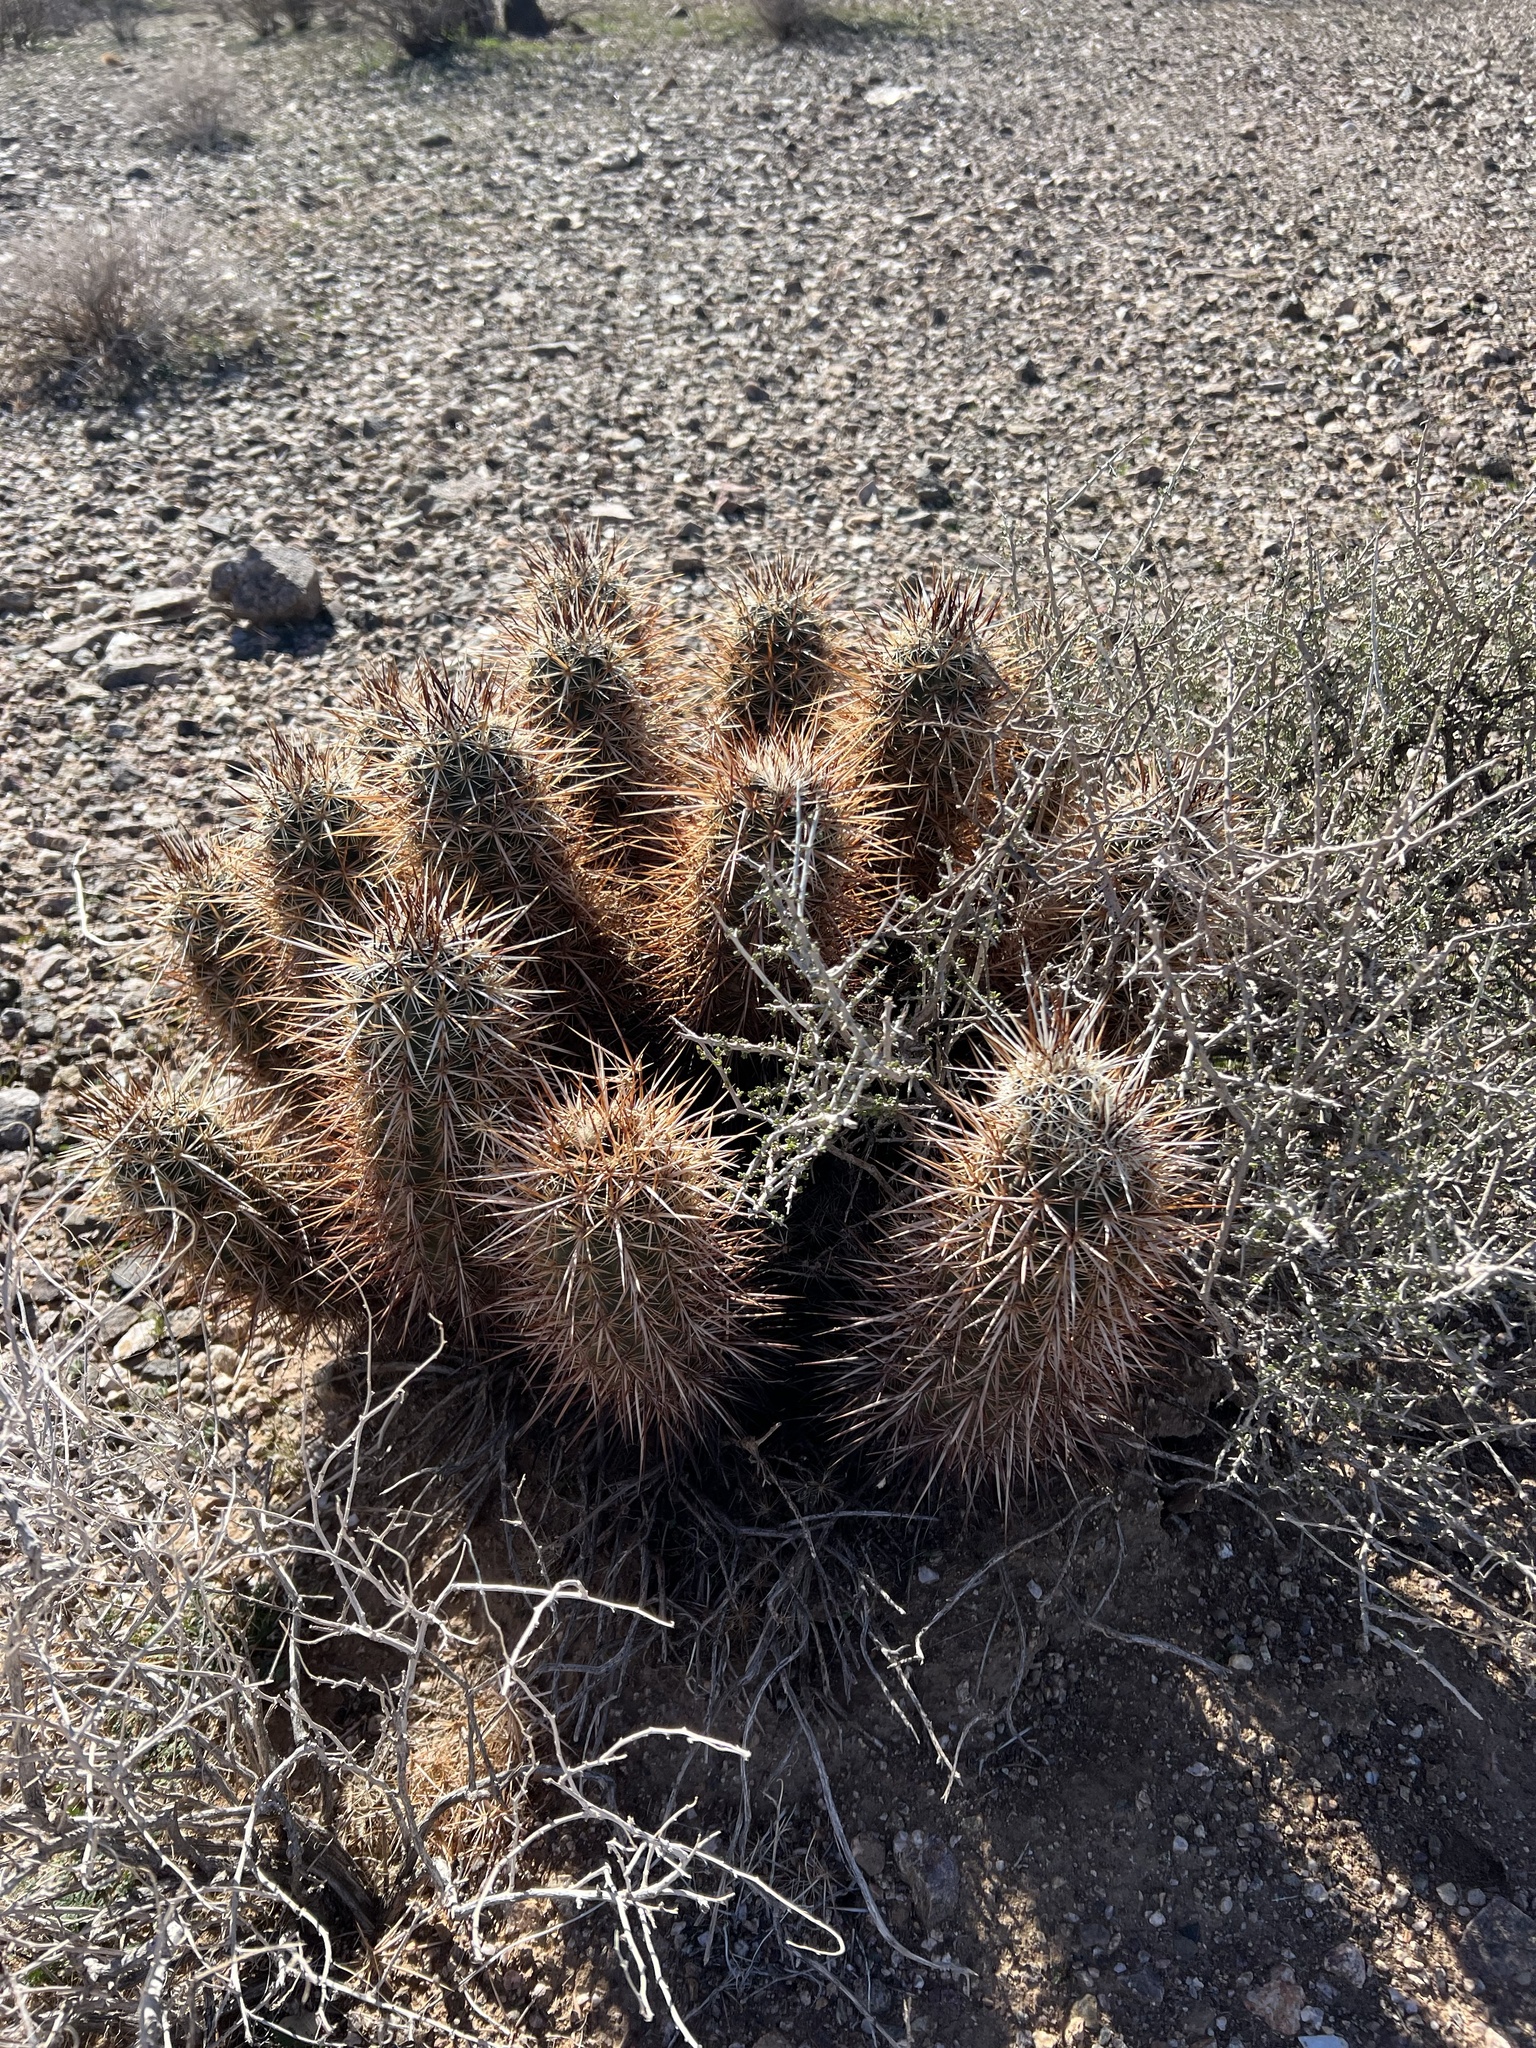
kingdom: Plantae
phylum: Tracheophyta
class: Magnoliopsida
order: Caryophyllales
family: Cactaceae
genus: Echinocereus
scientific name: Echinocereus engelmannii
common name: Engelmann's hedgehog cactus
